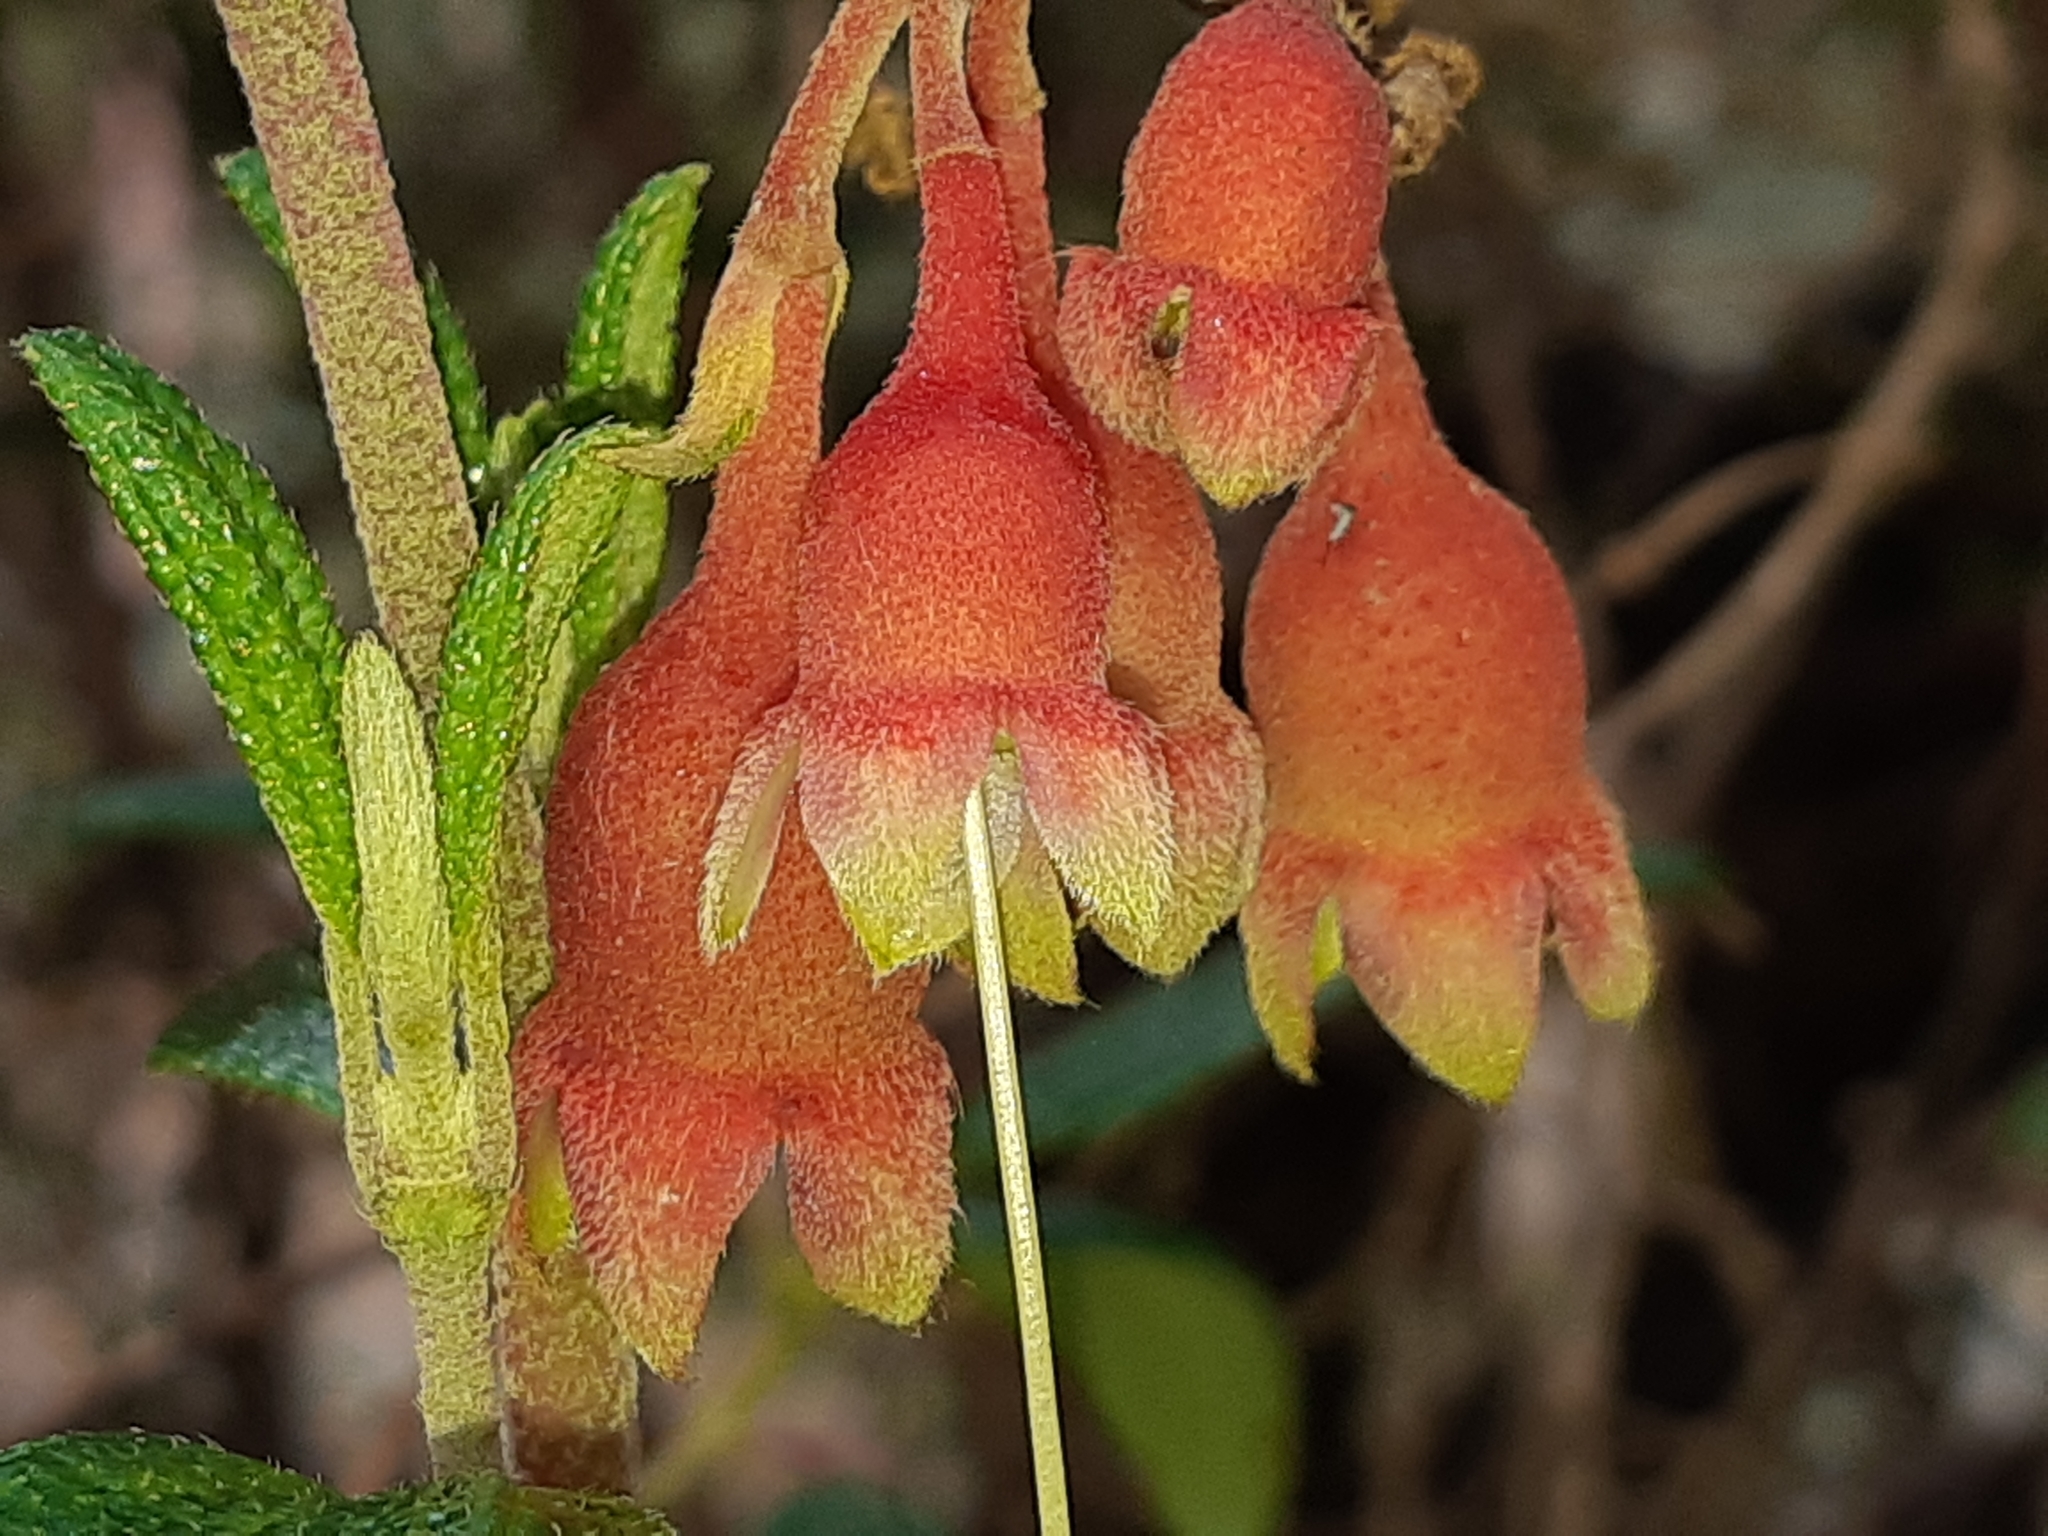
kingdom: Plantae
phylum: Tracheophyta
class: Magnoliopsida
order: Myrtales
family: Melastomataceae
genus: Brachyotum
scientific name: Brachyotum ledifolium
